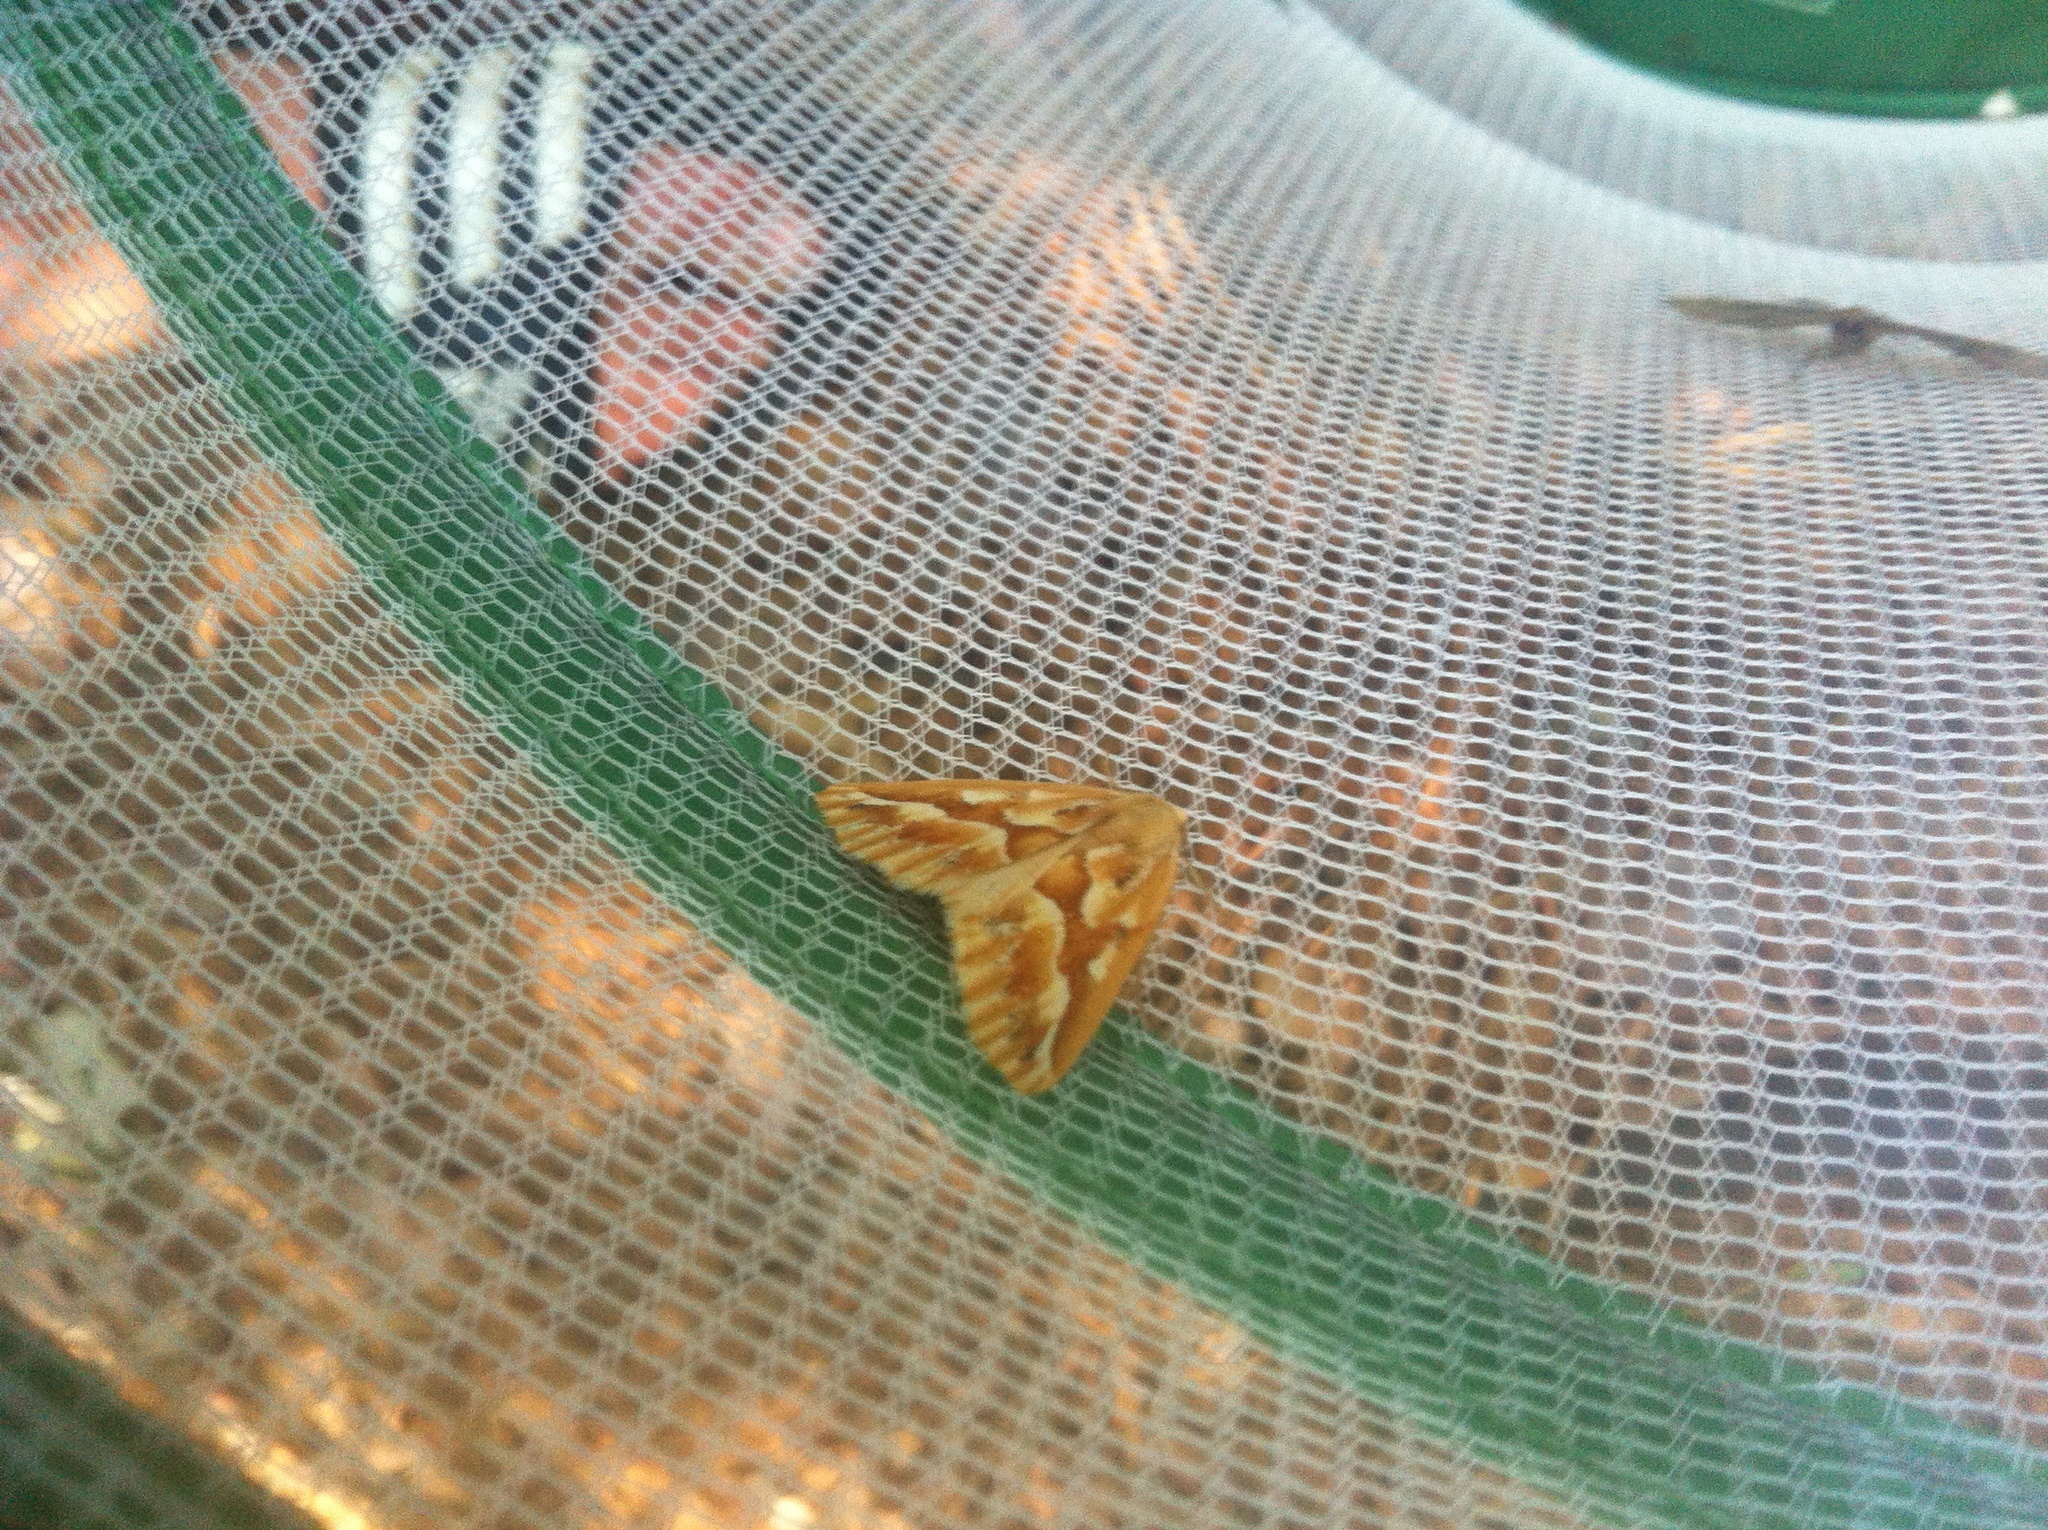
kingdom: Animalia
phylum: Arthropoda
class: Insecta
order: Lepidoptera
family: Geometridae
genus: Caripeta
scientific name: Caripeta piniata
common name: Northern pine looper moth
